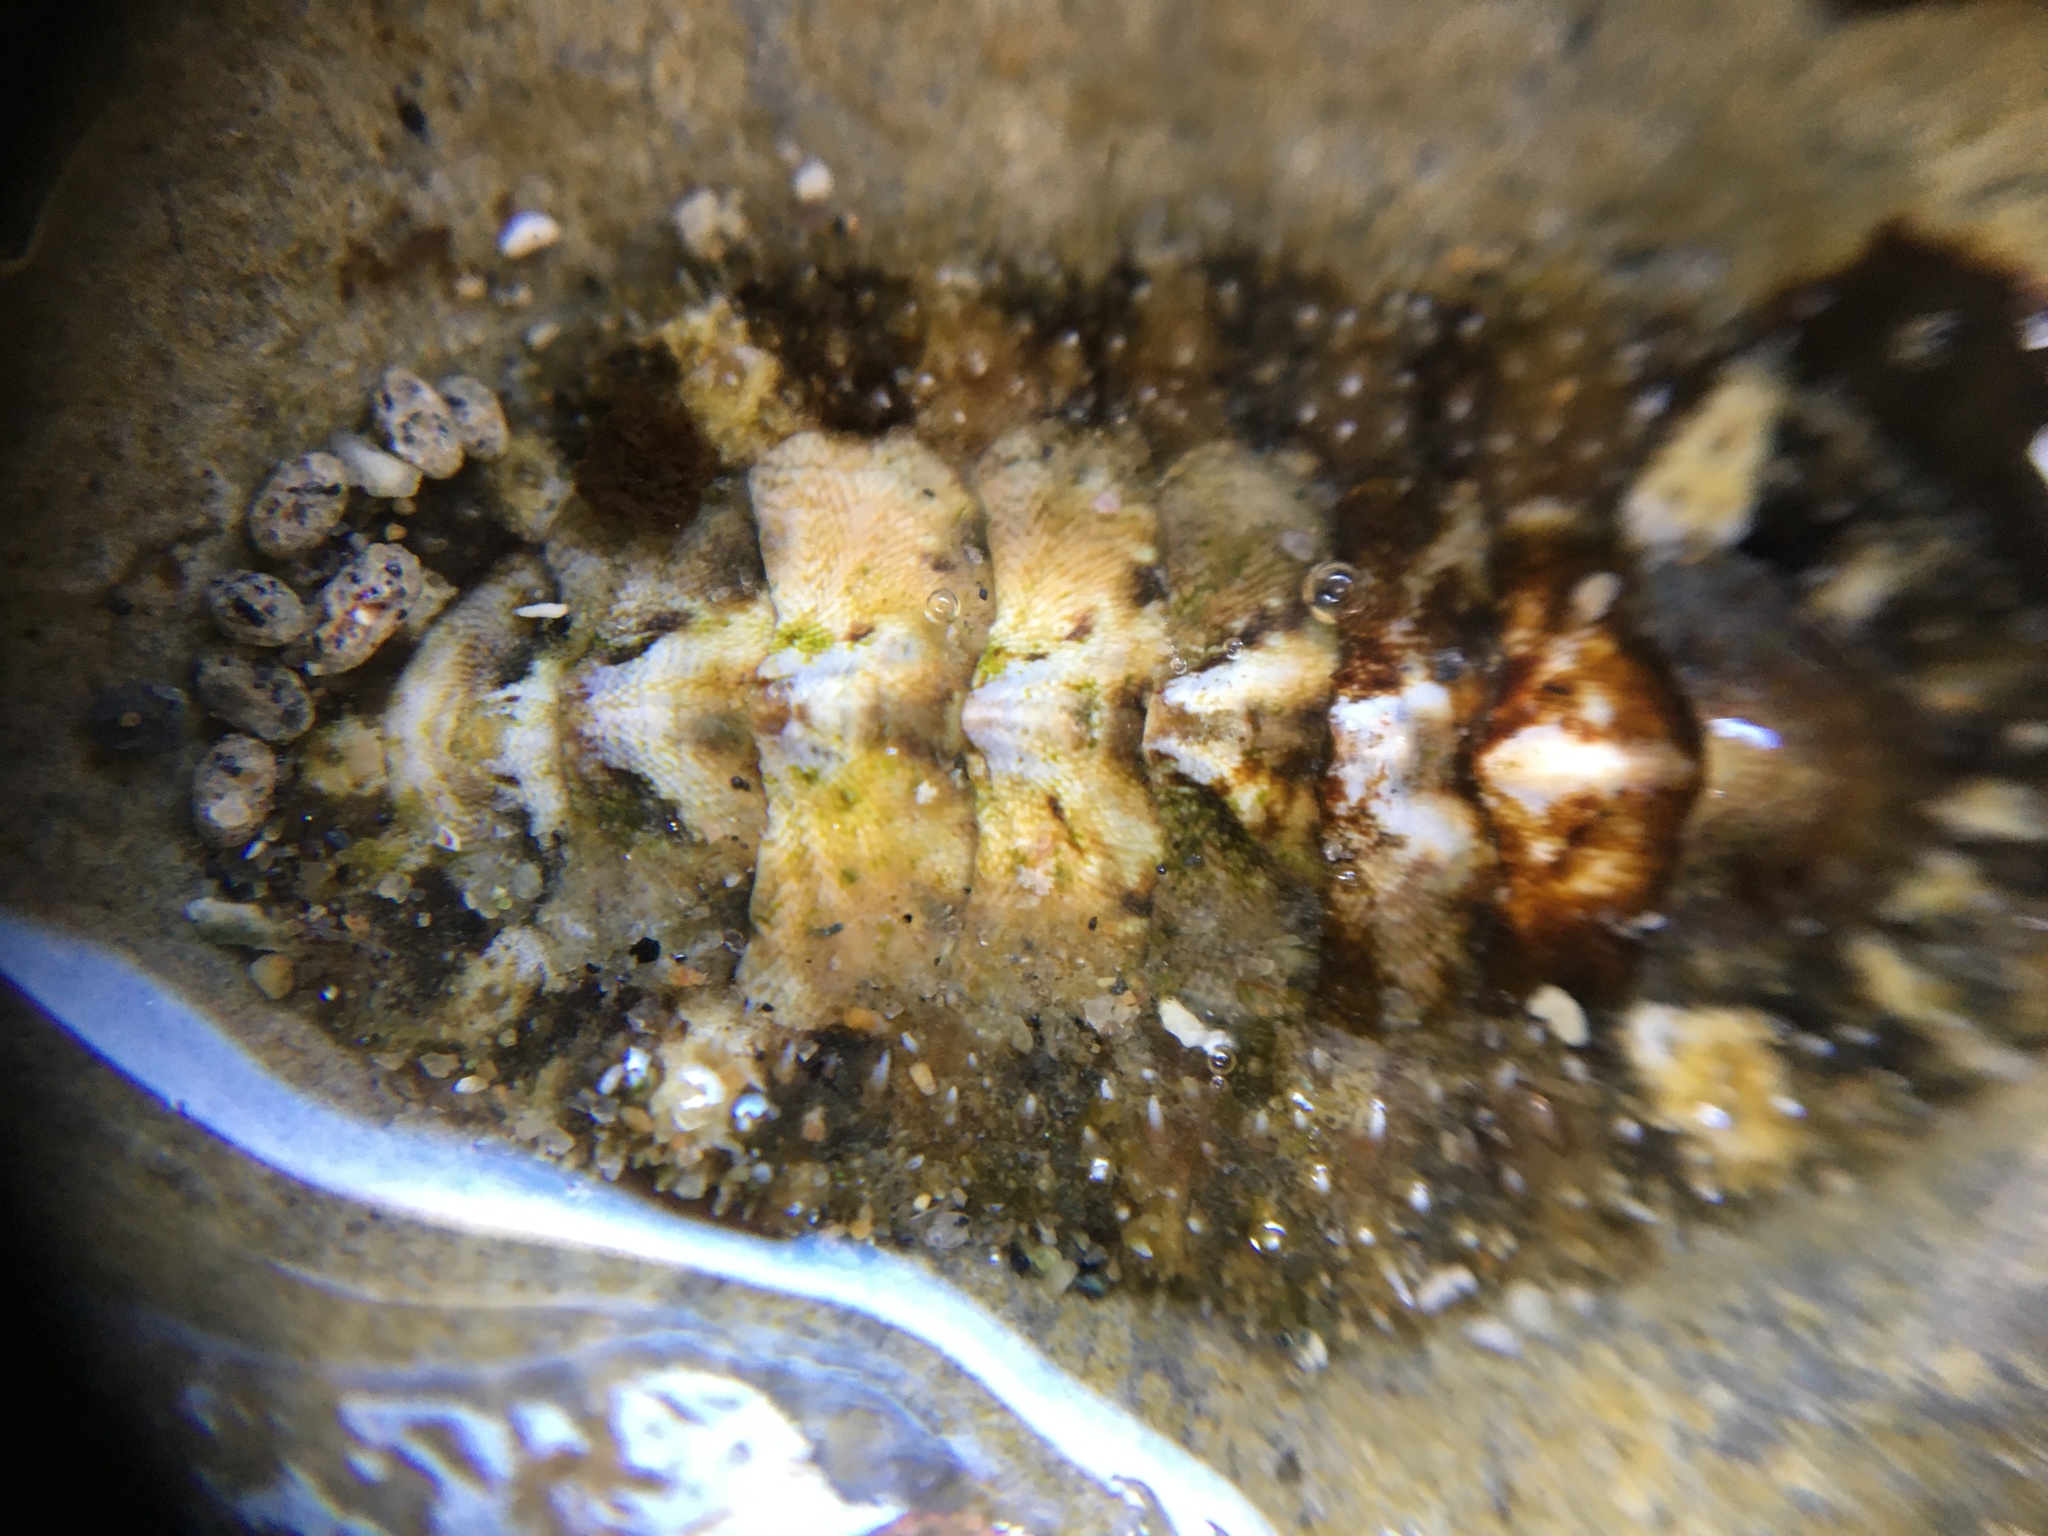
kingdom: Animalia
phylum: Mollusca
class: Polyplacophora
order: Chitonida
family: Tonicellidae
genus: Nuttallina
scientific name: Nuttallina californica
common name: California nuttall chiton
